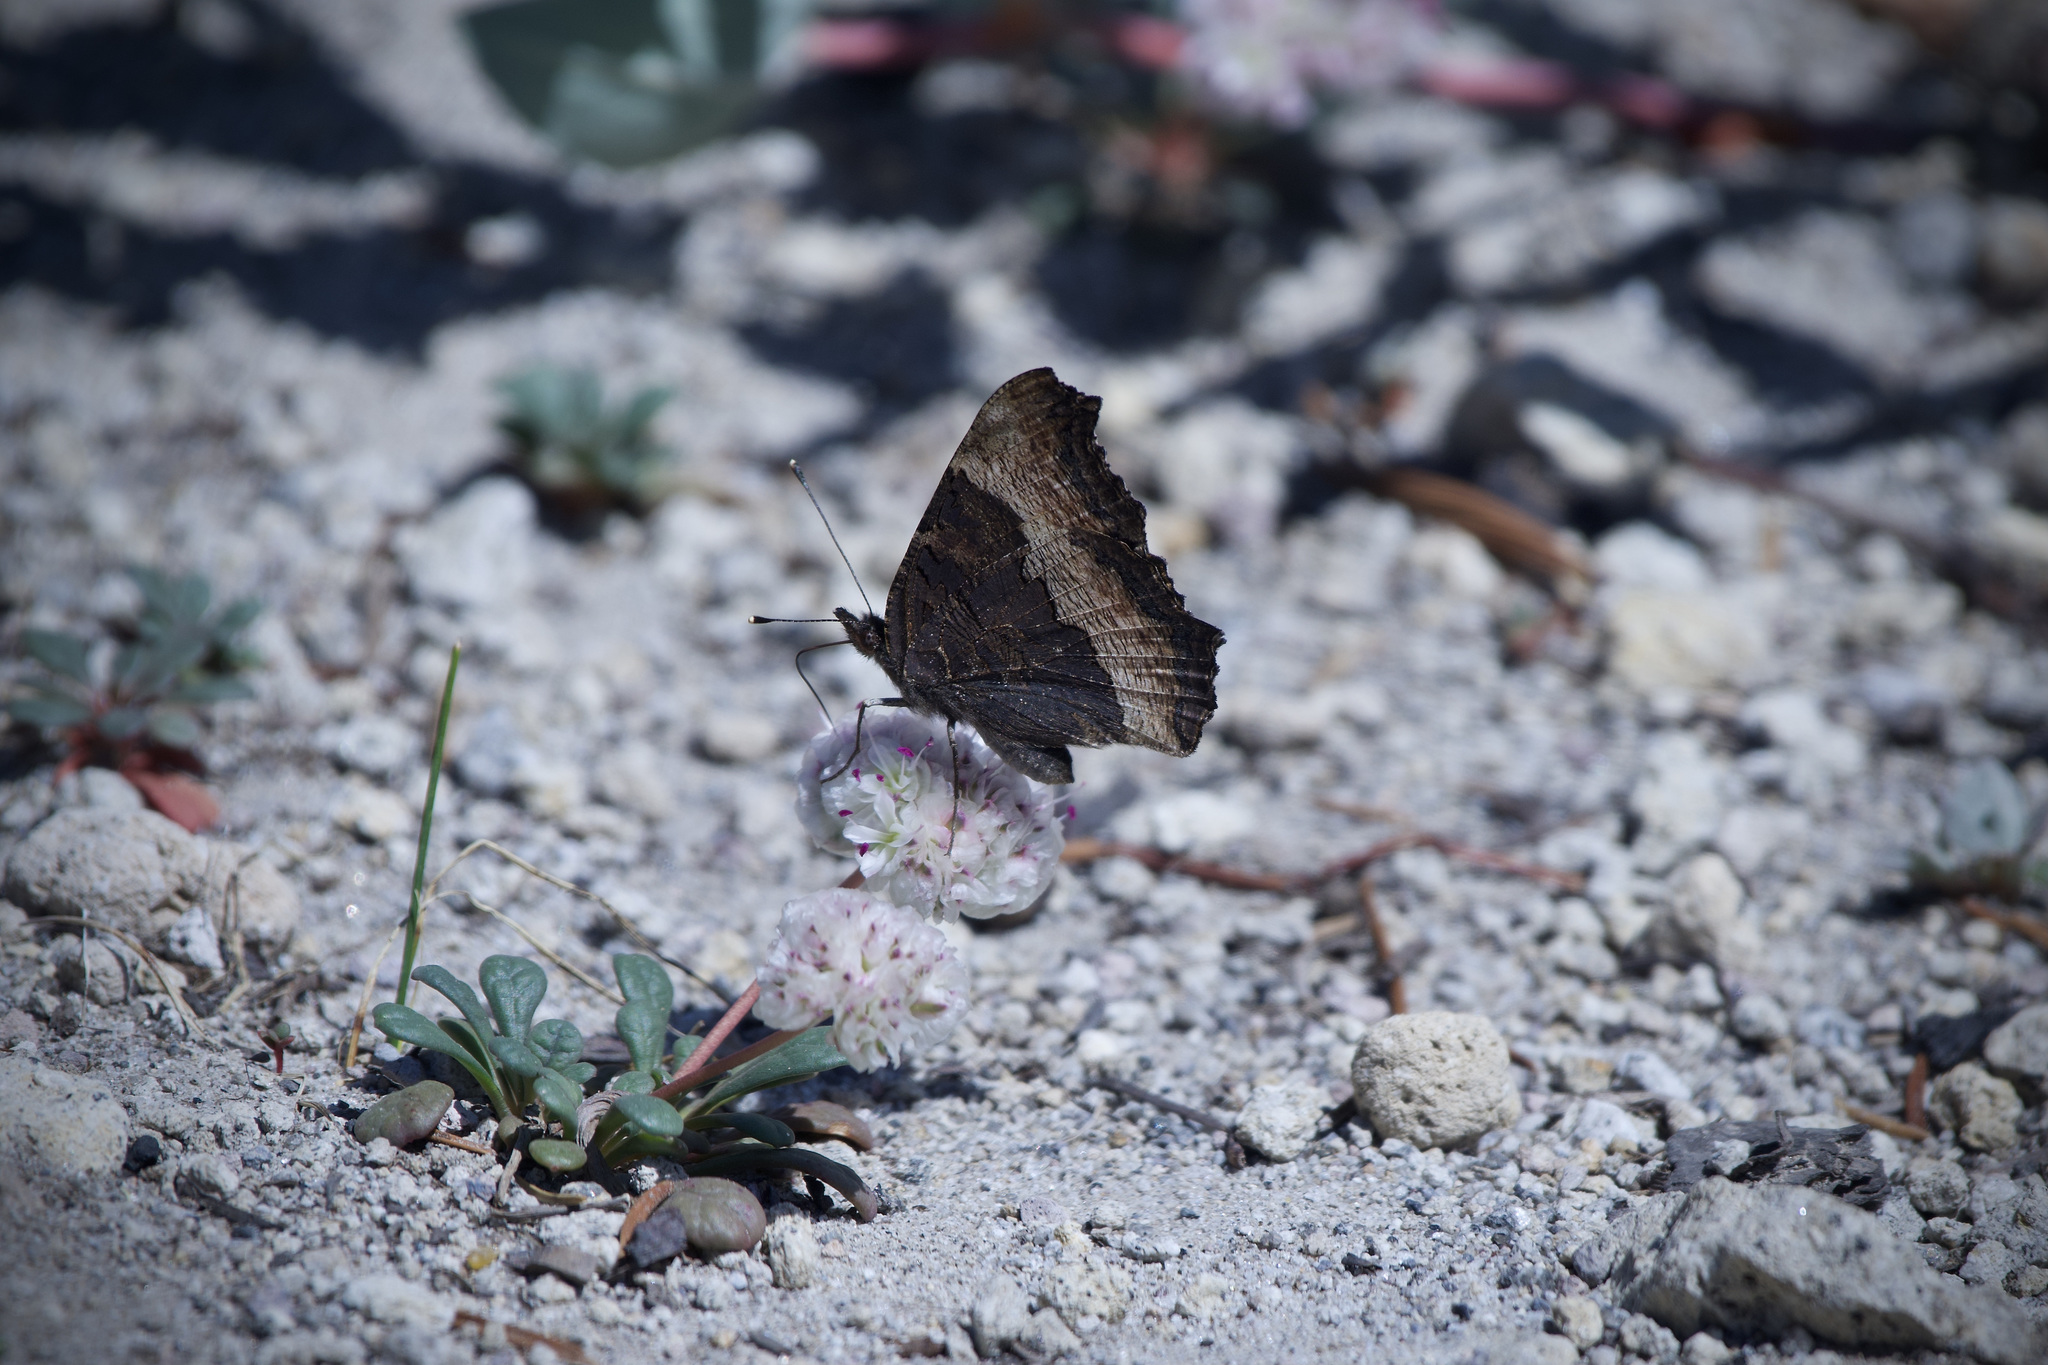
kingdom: Animalia
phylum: Arthropoda
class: Insecta
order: Lepidoptera
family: Nymphalidae
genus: Aglais
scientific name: Aglais milberti
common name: Milbert's tortoiseshell
